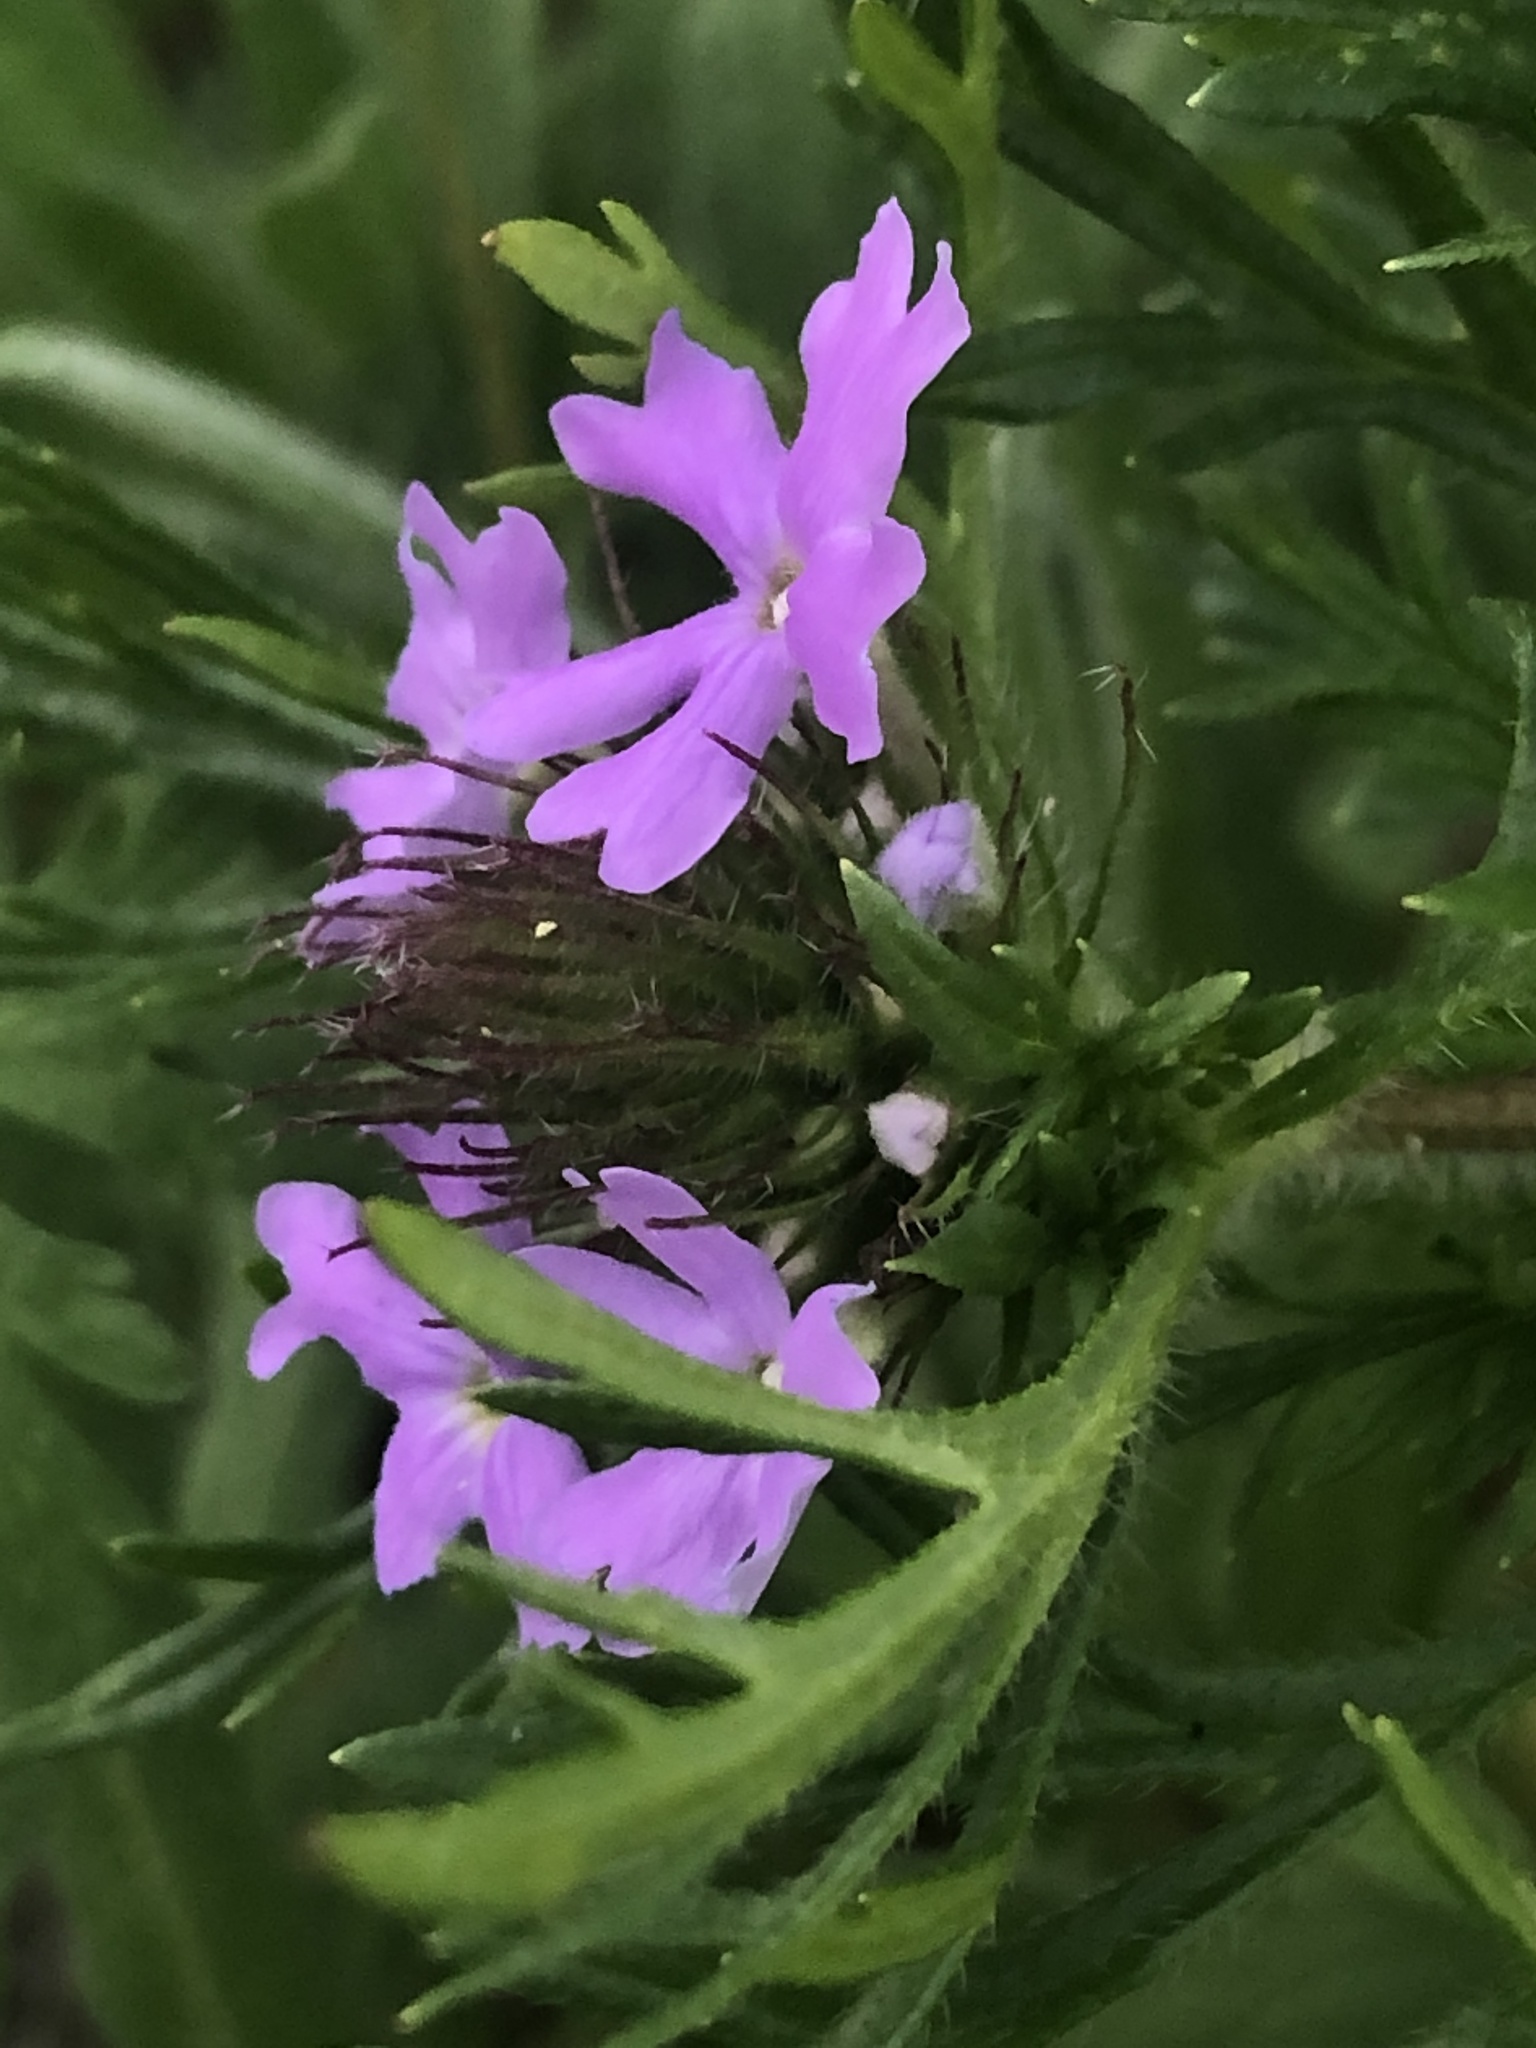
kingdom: Plantae
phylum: Tracheophyta
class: Magnoliopsida
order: Lamiales
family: Verbenaceae
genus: Verbena
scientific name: Verbena bipinnatifida
